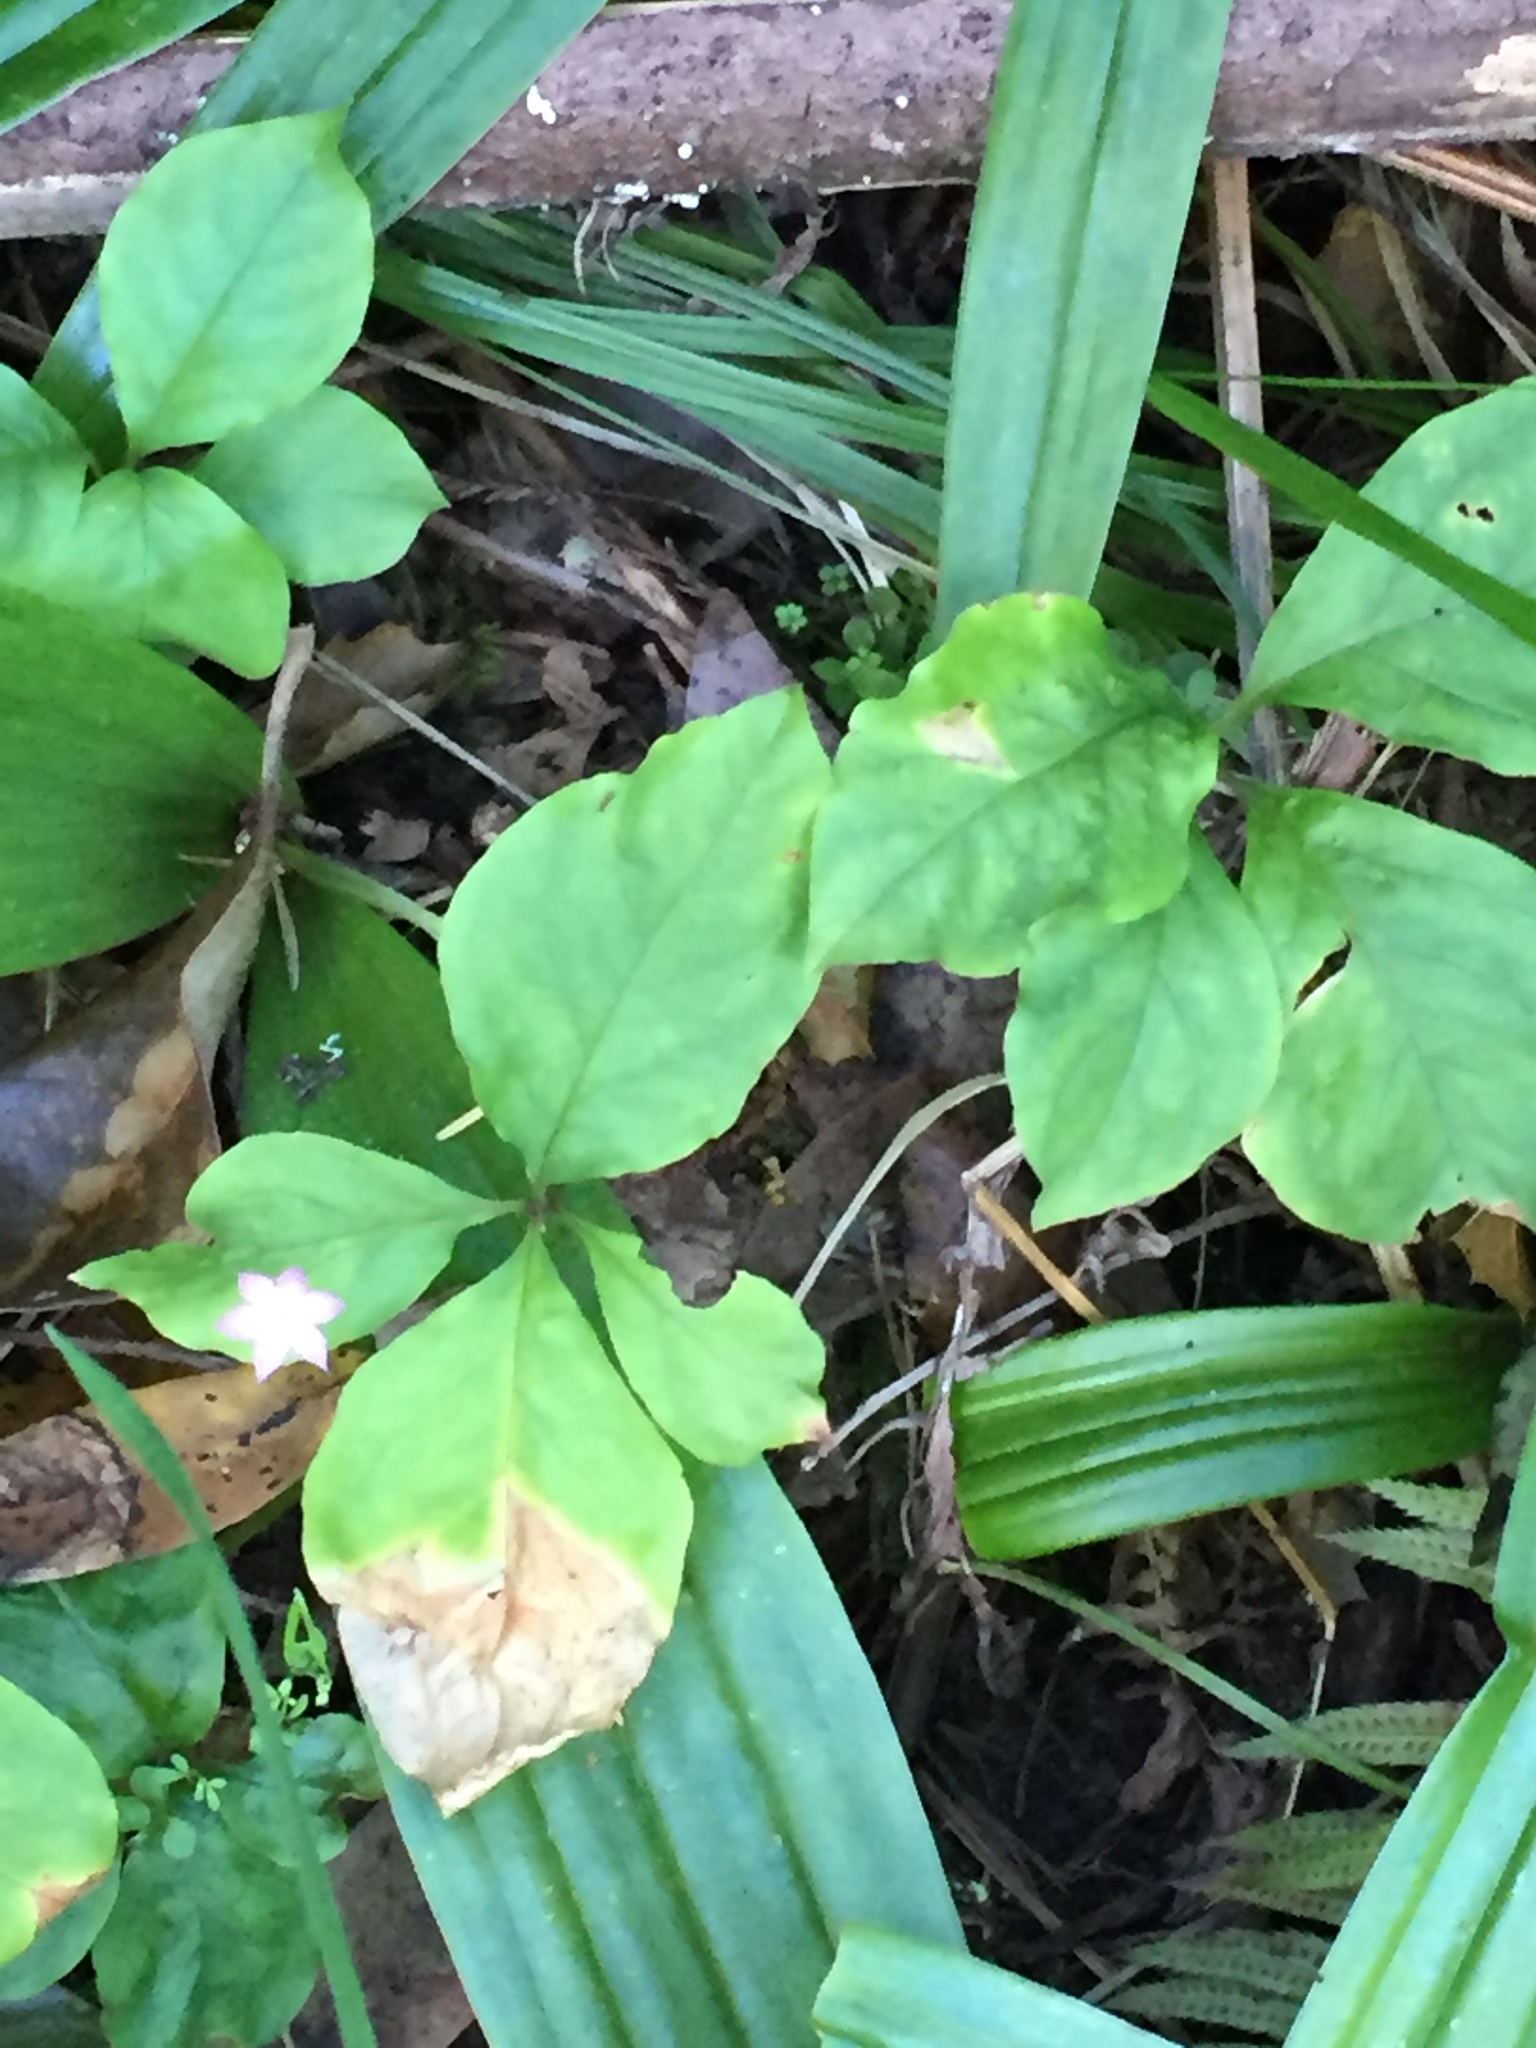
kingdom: Plantae
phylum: Tracheophyta
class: Magnoliopsida
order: Ericales
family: Primulaceae
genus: Lysimachia
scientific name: Lysimachia latifolia
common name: Pacific starflower
